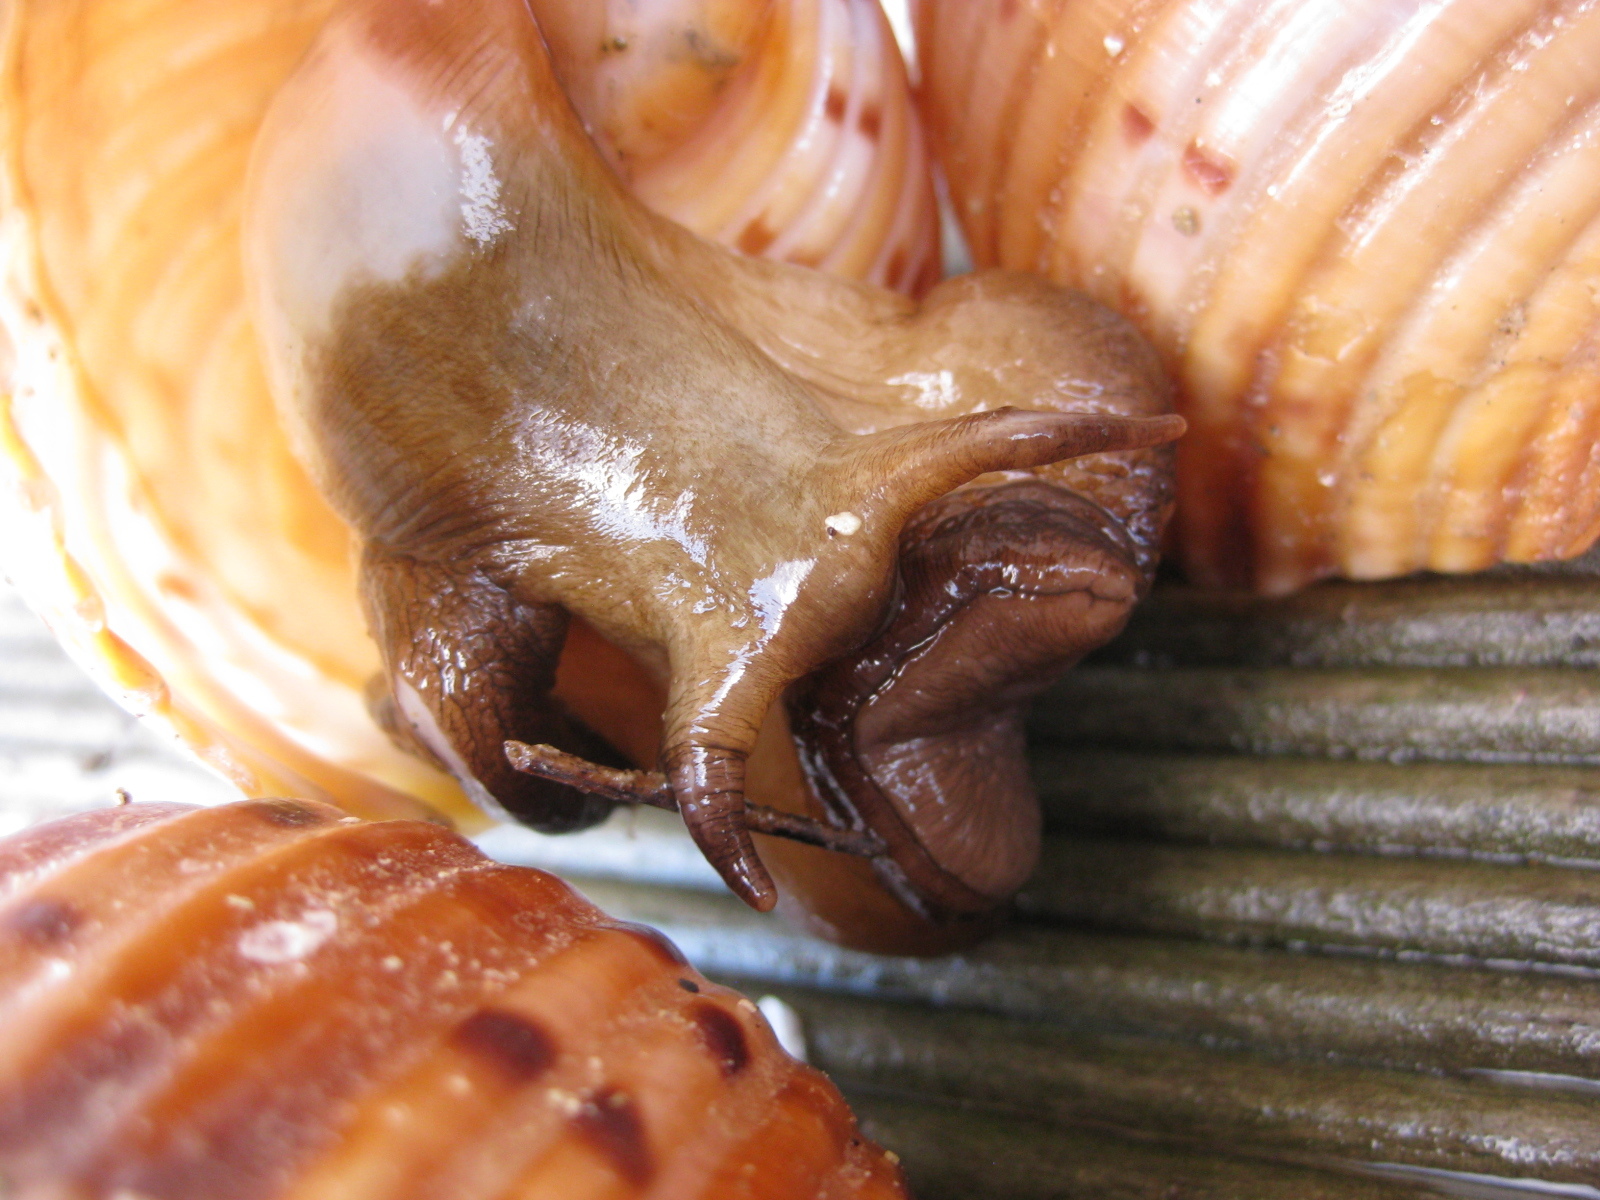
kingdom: Animalia
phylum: Mollusca
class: Gastropoda
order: Littorinimorpha
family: Tonnidae
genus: Tonna
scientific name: Tonna tankervillii
